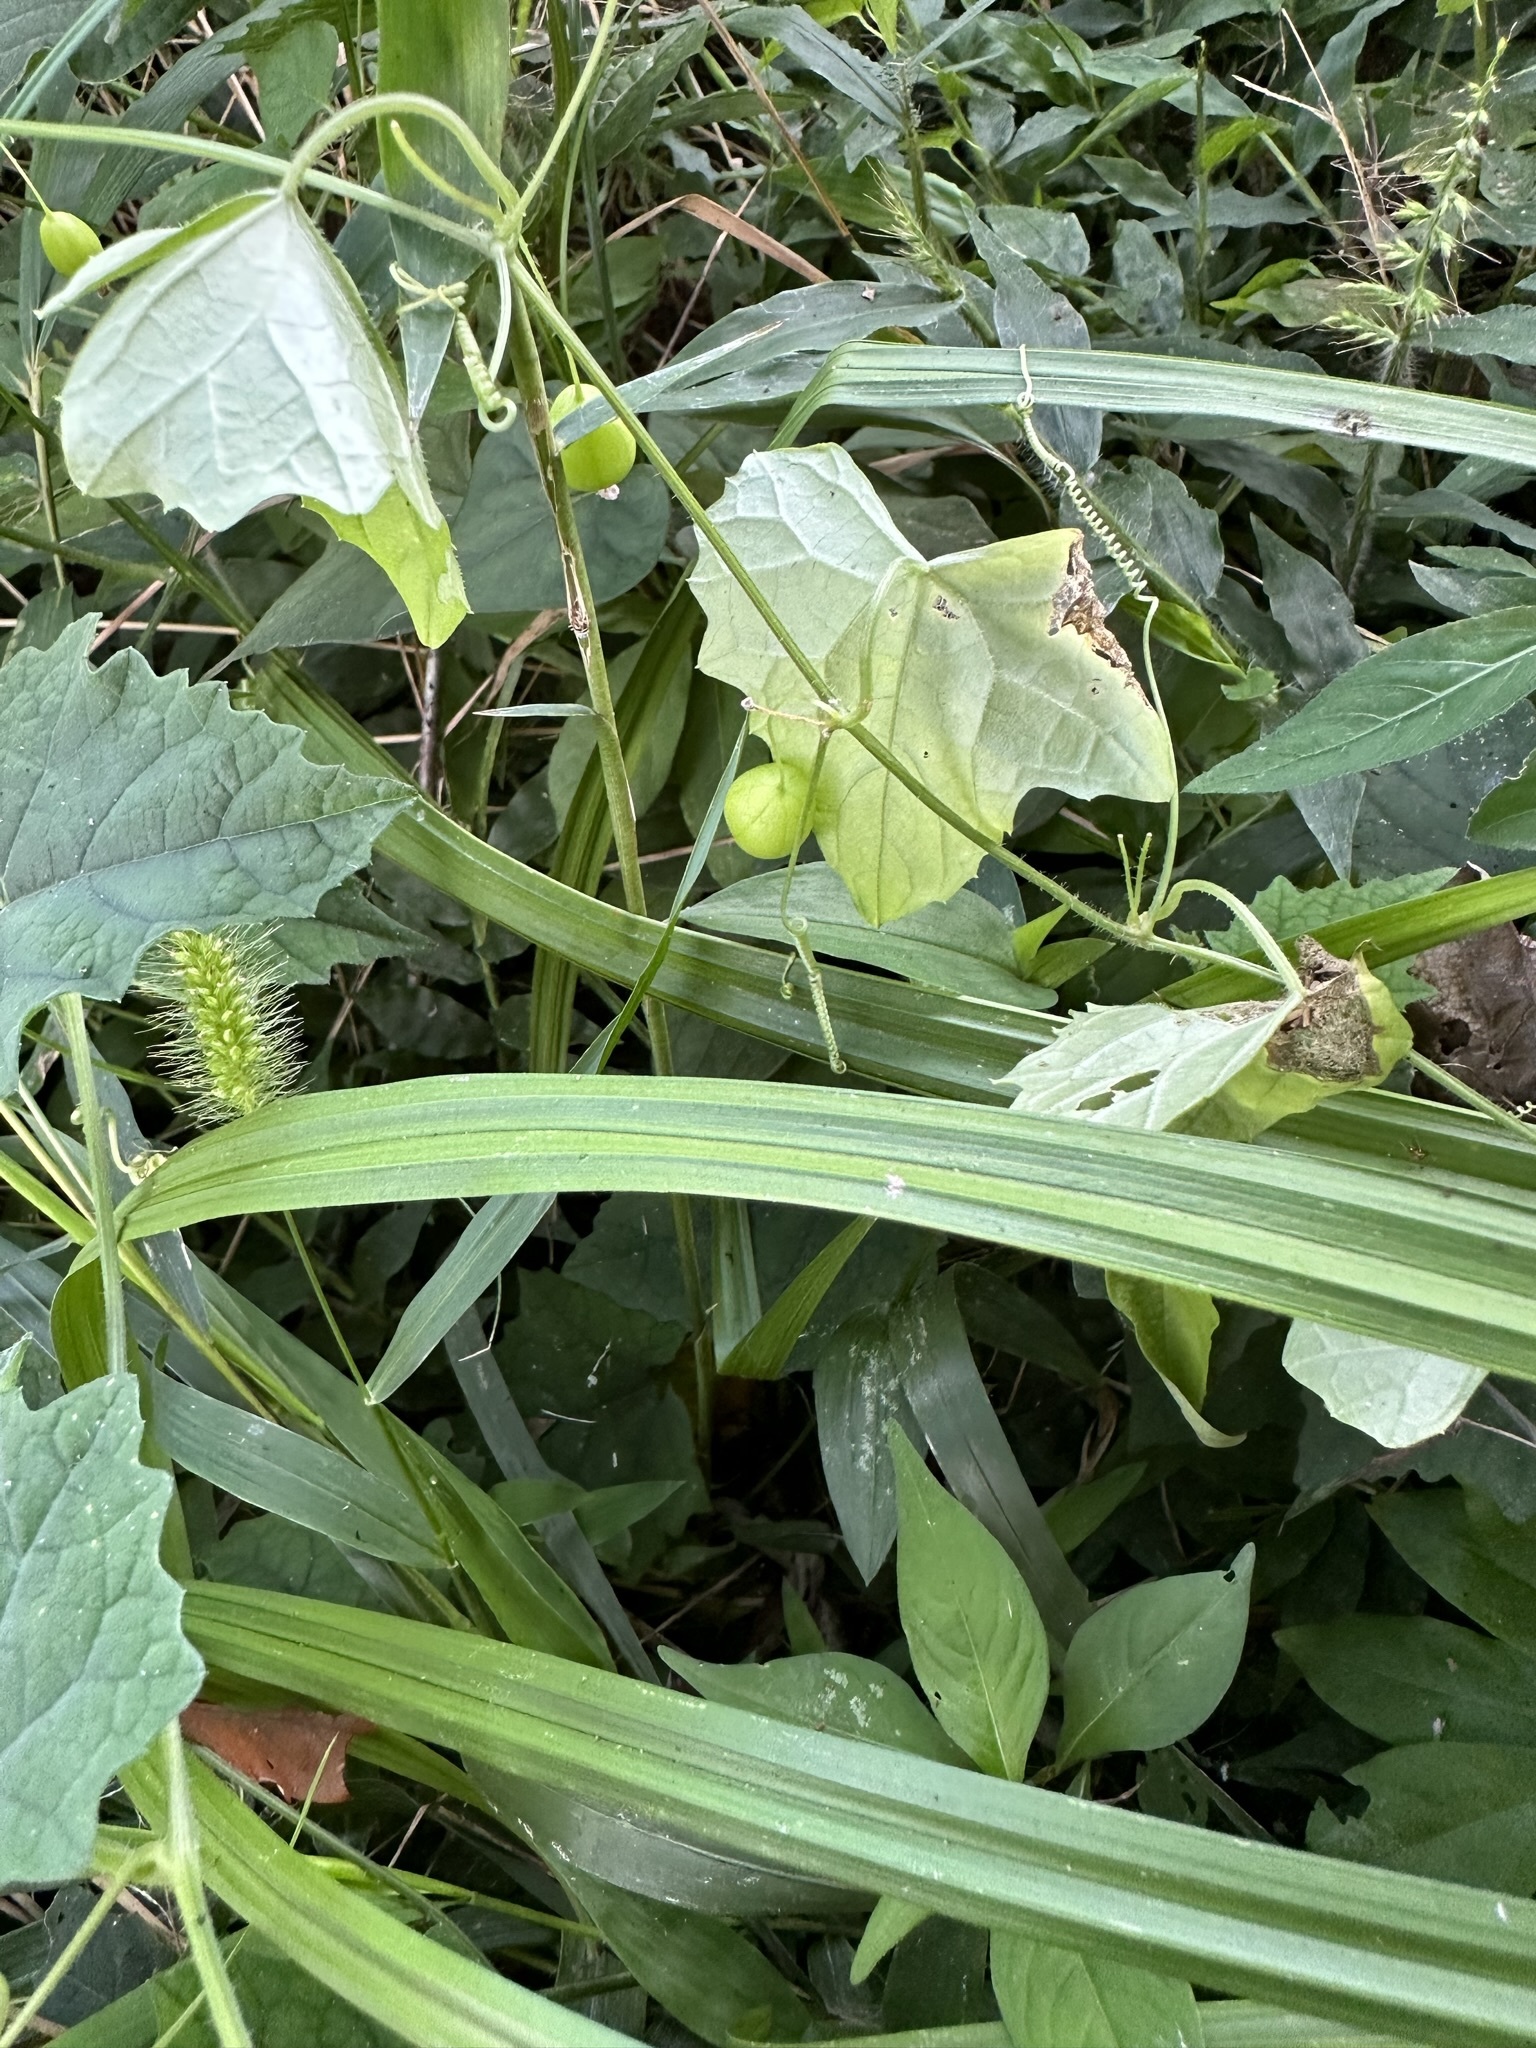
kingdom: Plantae
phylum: Tracheophyta
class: Magnoliopsida
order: Cucurbitales
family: Cucurbitaceae
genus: Zehneria
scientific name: Zehneria japonica
